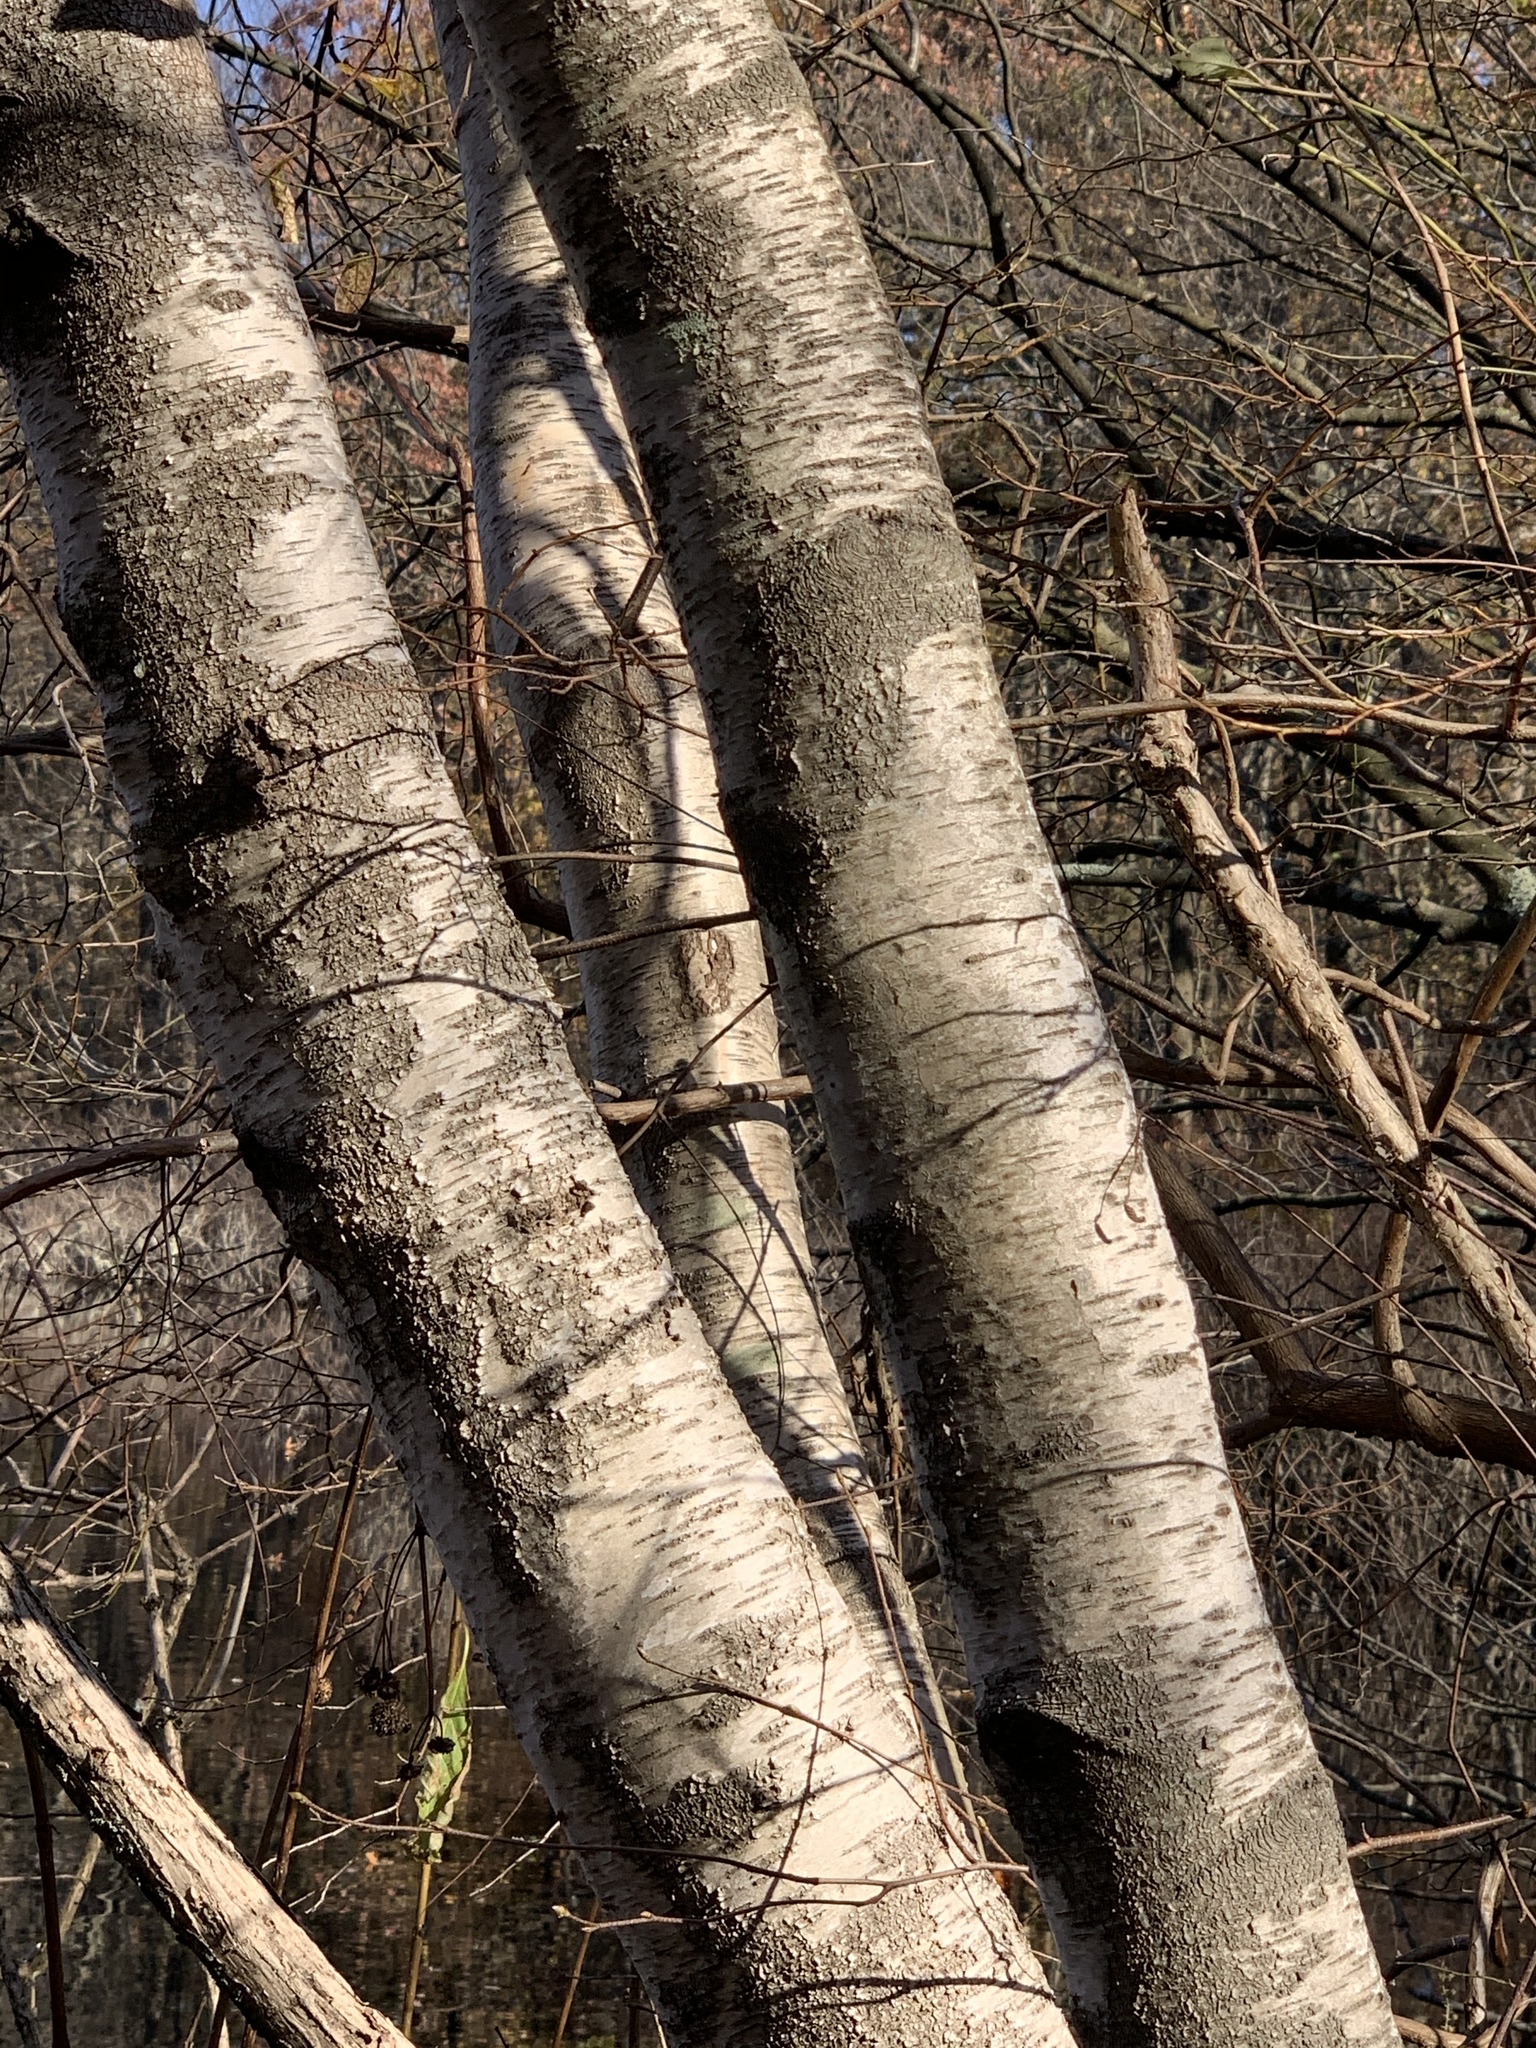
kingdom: Plantae
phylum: Tracheophyta
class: Magnoliopsida
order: Fagales
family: Betulaceae
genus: Betula
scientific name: Betula populifolia
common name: Fire birch
